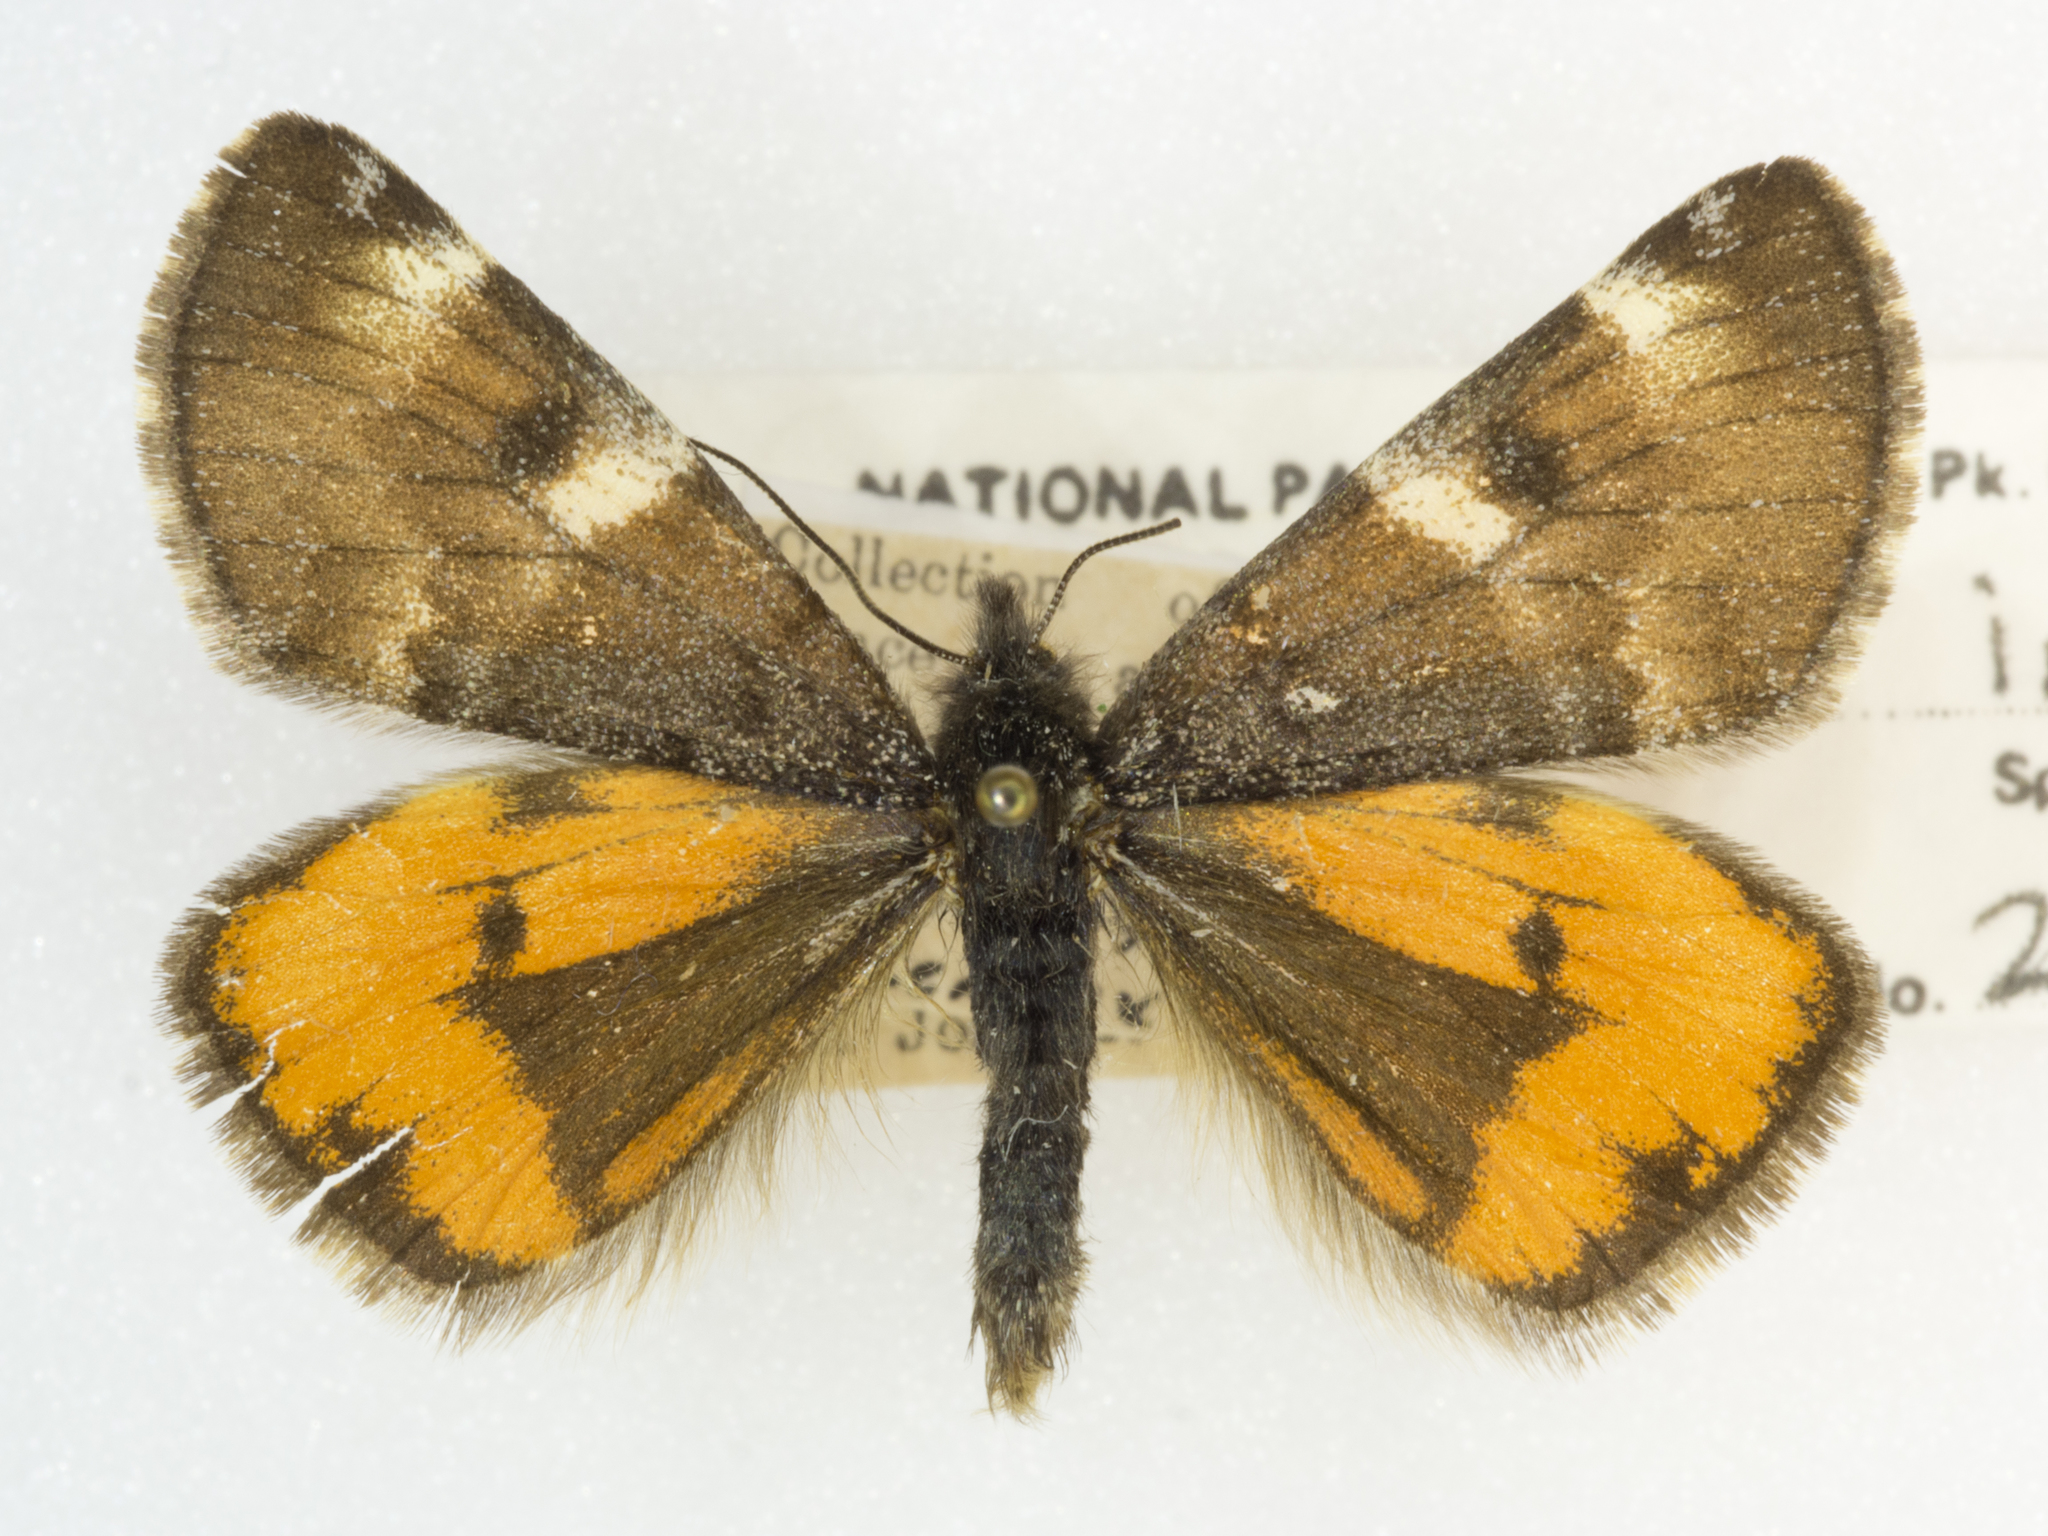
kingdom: Animalia
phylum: Arthropoda
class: Insecta
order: Lepidoptera
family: Geometridae
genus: Archiearis
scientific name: Archiearis infans
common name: First born geometer
